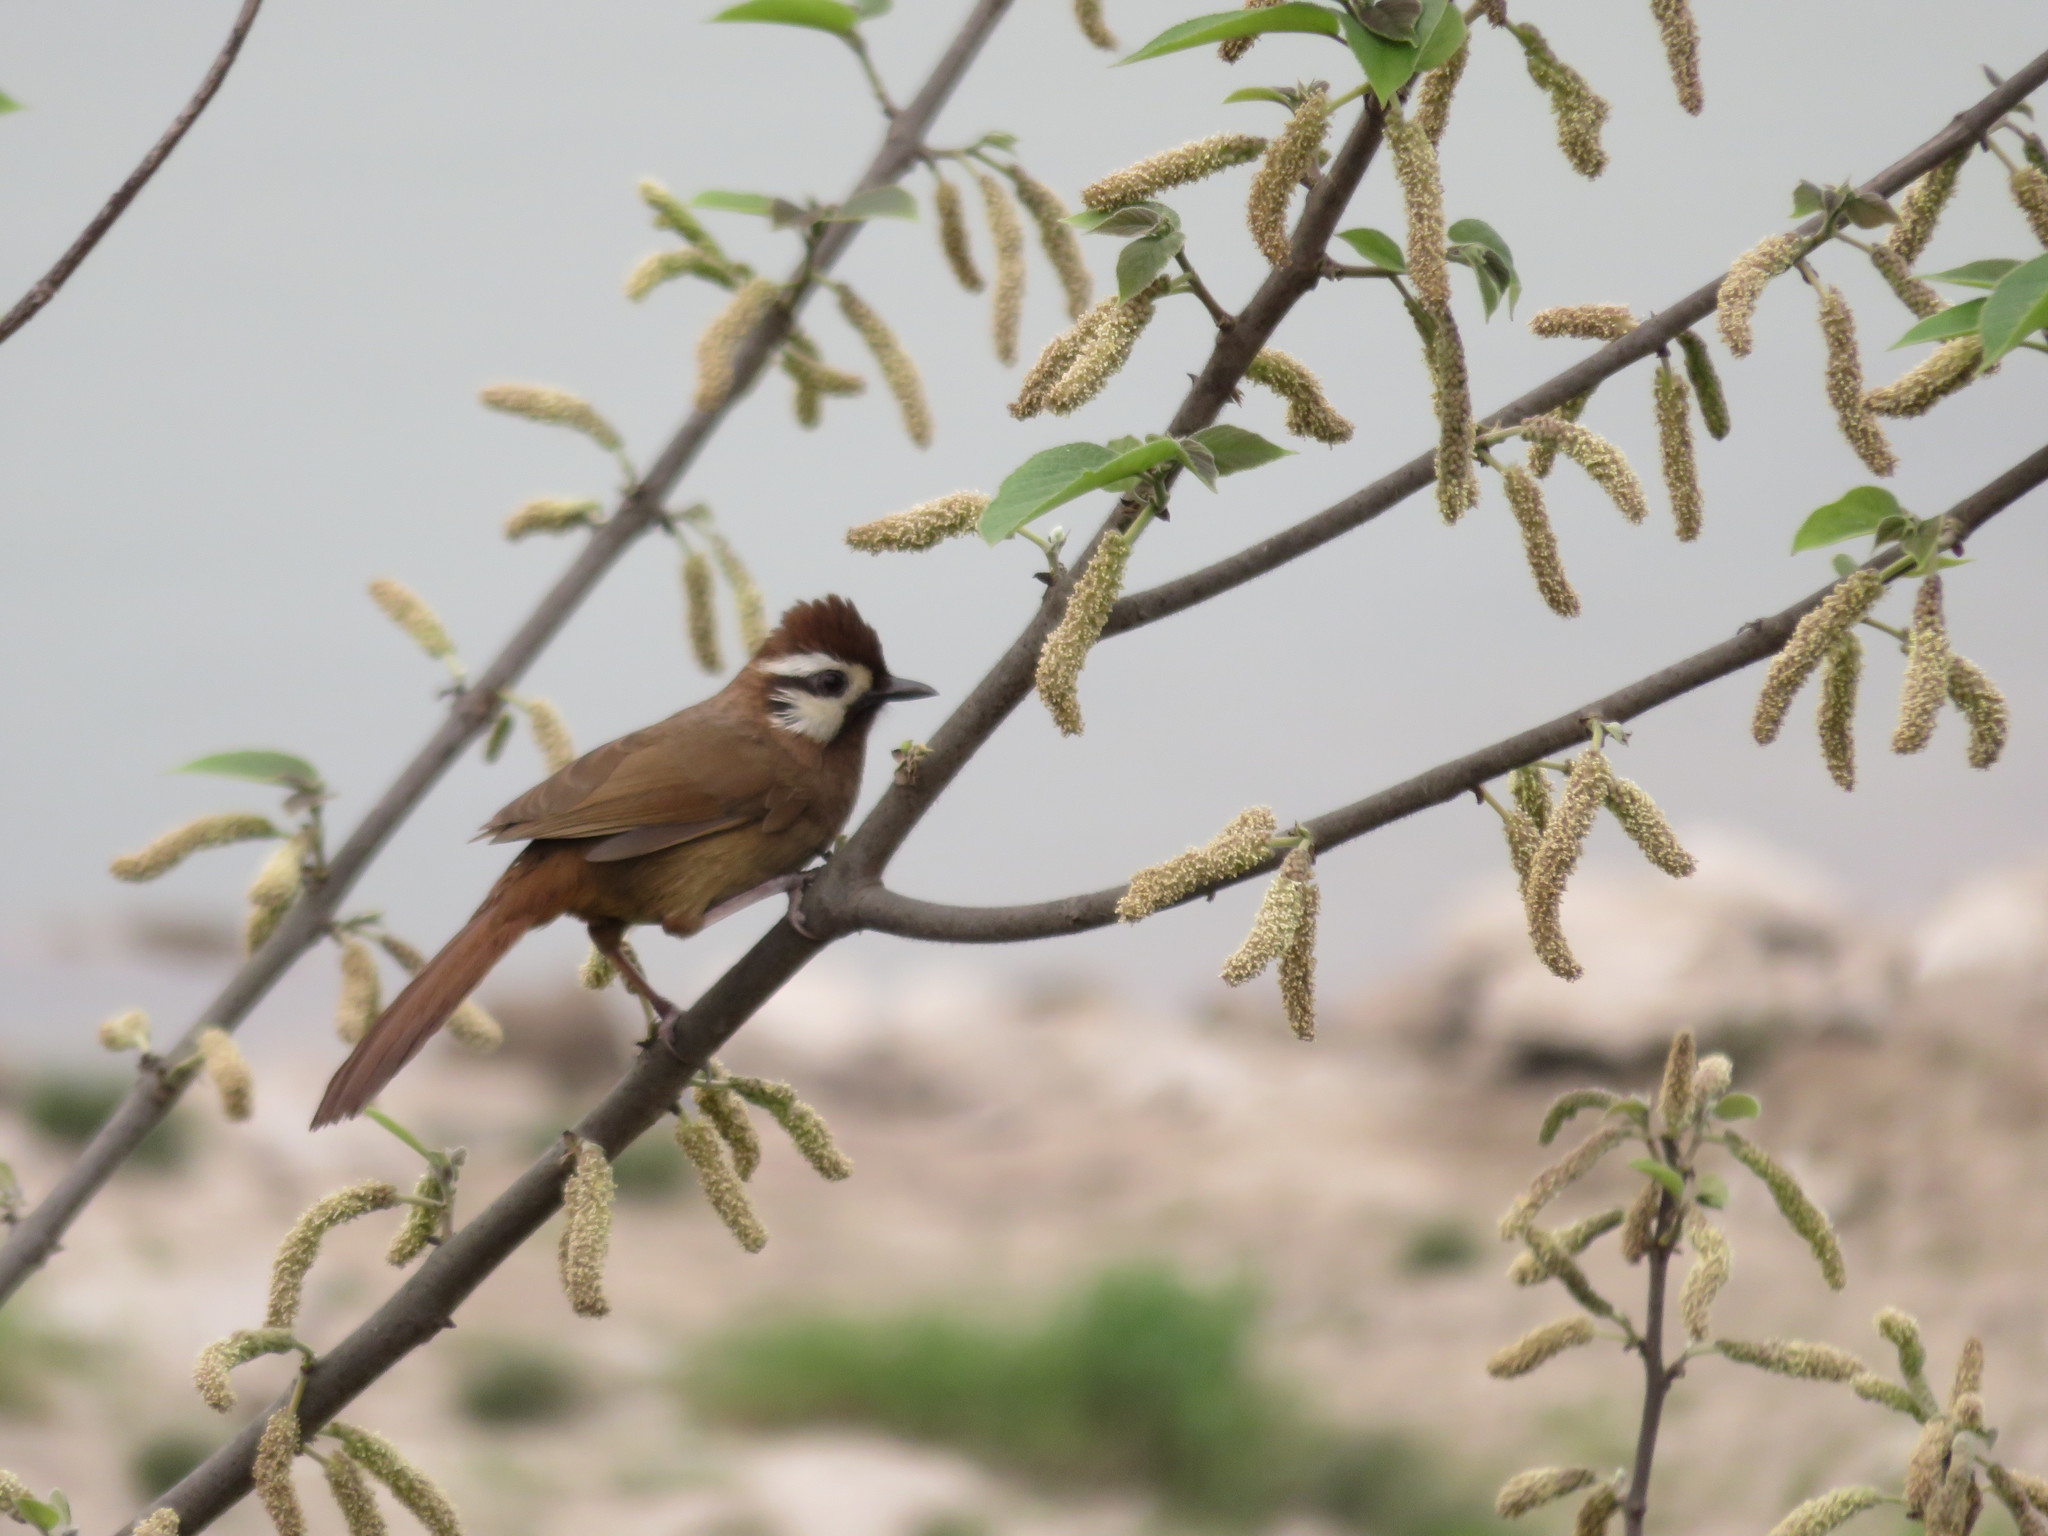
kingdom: Animalia
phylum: Chordata
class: Aves
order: Passeriformes
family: Leiothrichidae
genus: Pterorhinus
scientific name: Pterorhinus sannio
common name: White-browed laughingthrush
